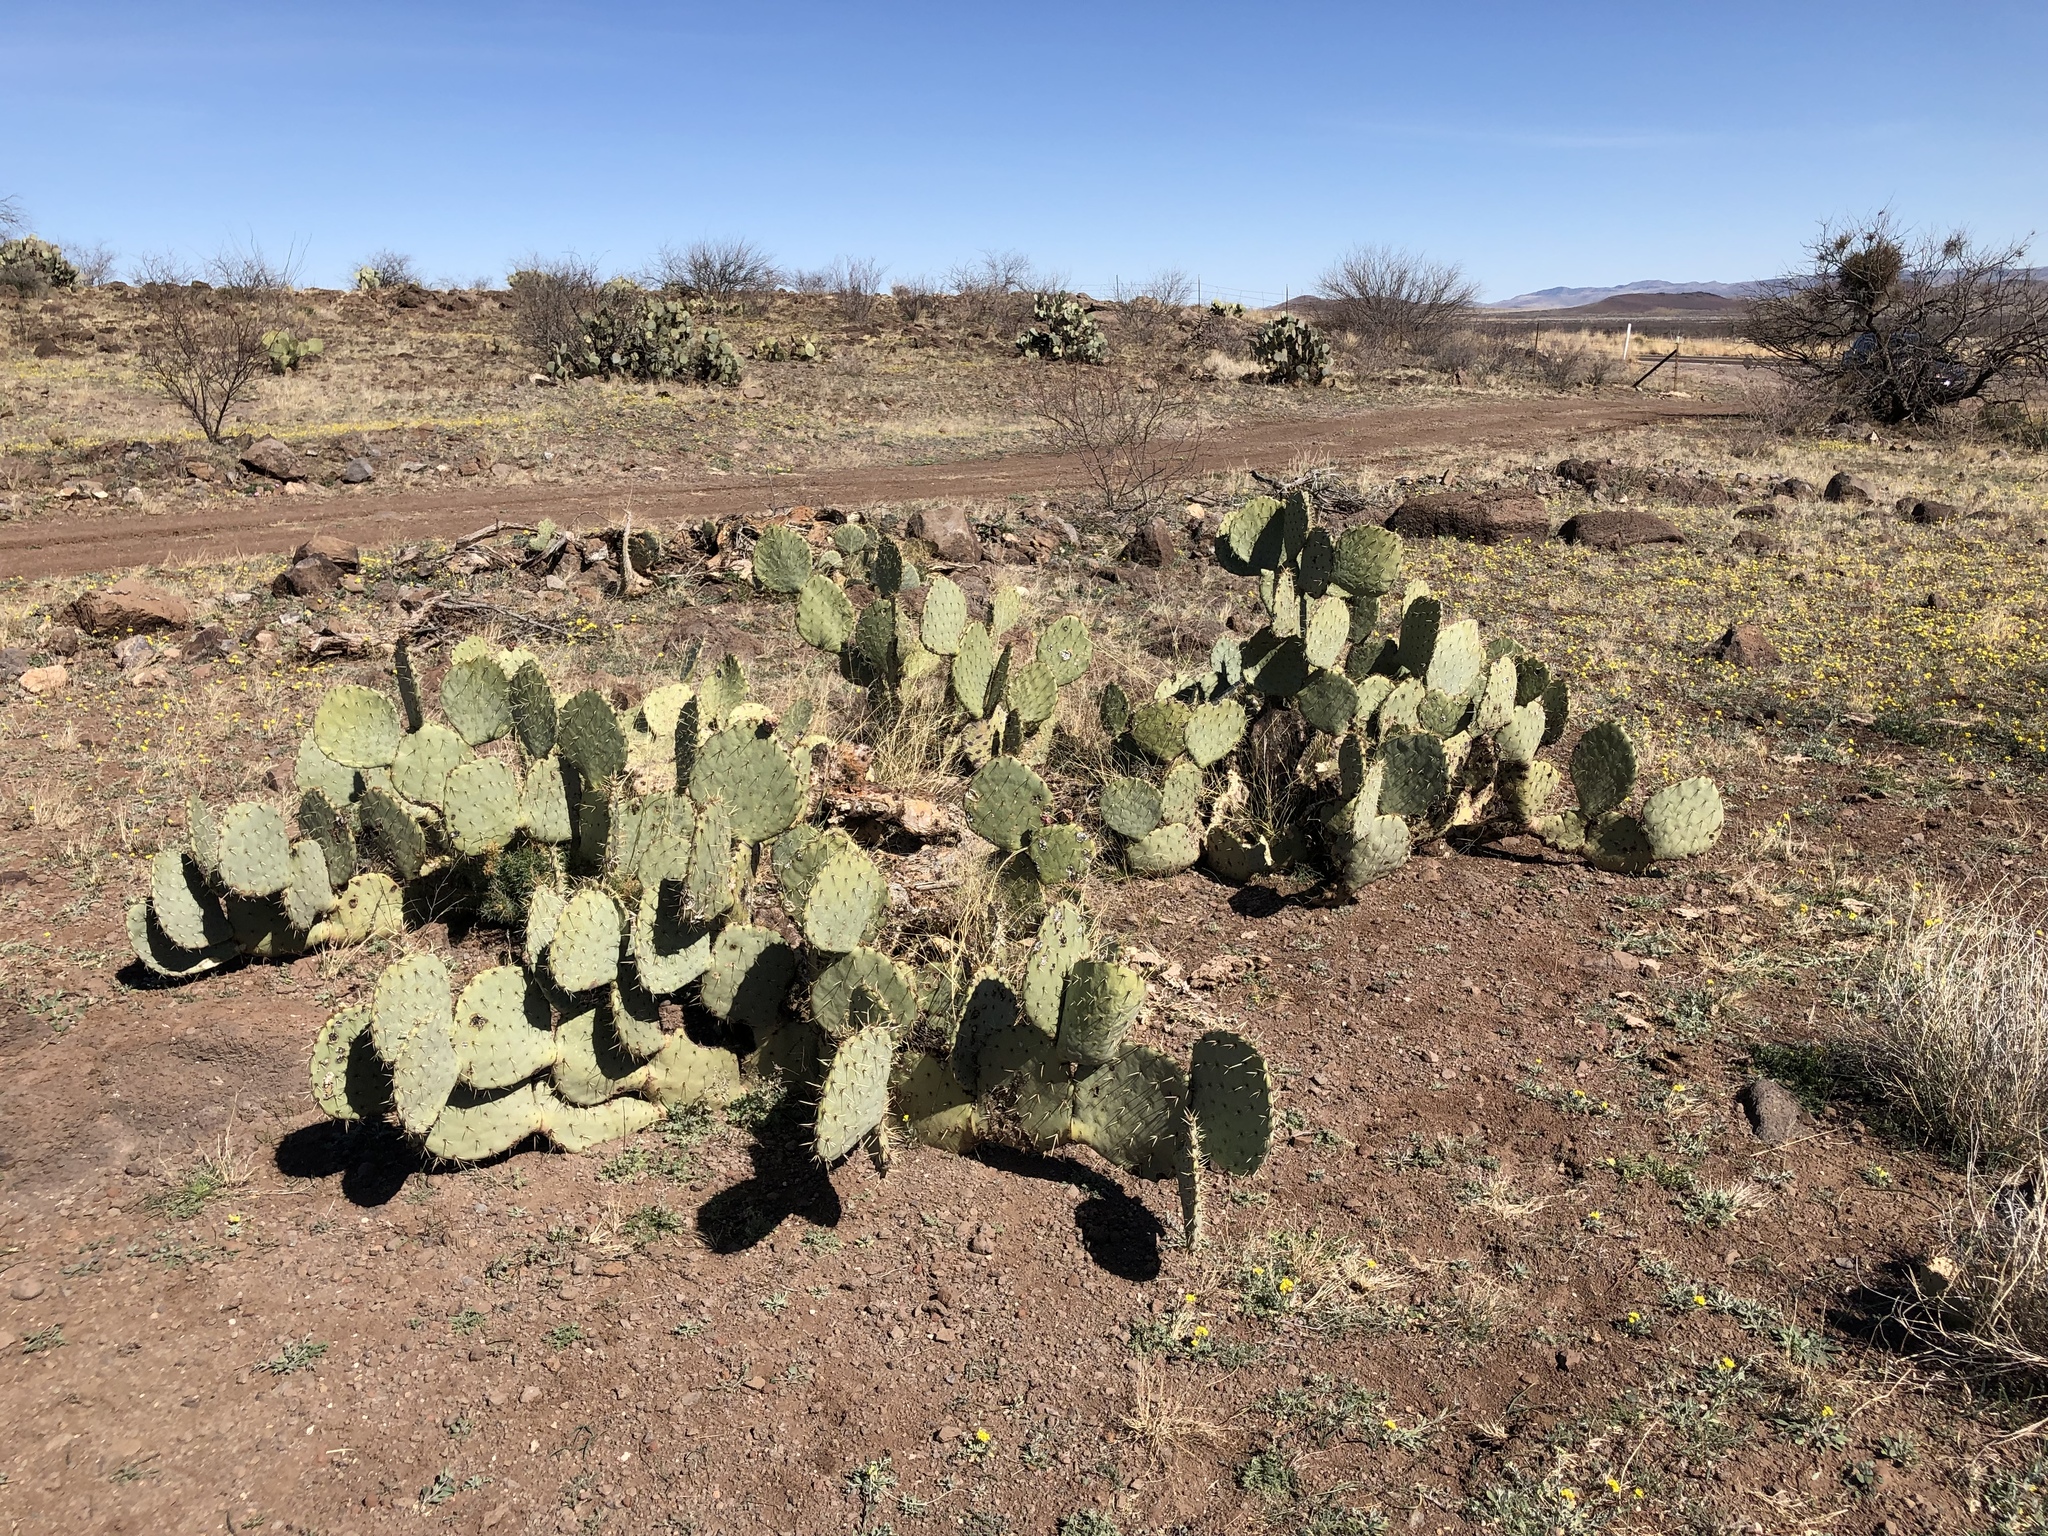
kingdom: Plantae
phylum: Tracheophyta
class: Magnoliopsida
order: Caryophyllales
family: Cactaceae
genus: Opuntia
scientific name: Opuntia orbiculata
